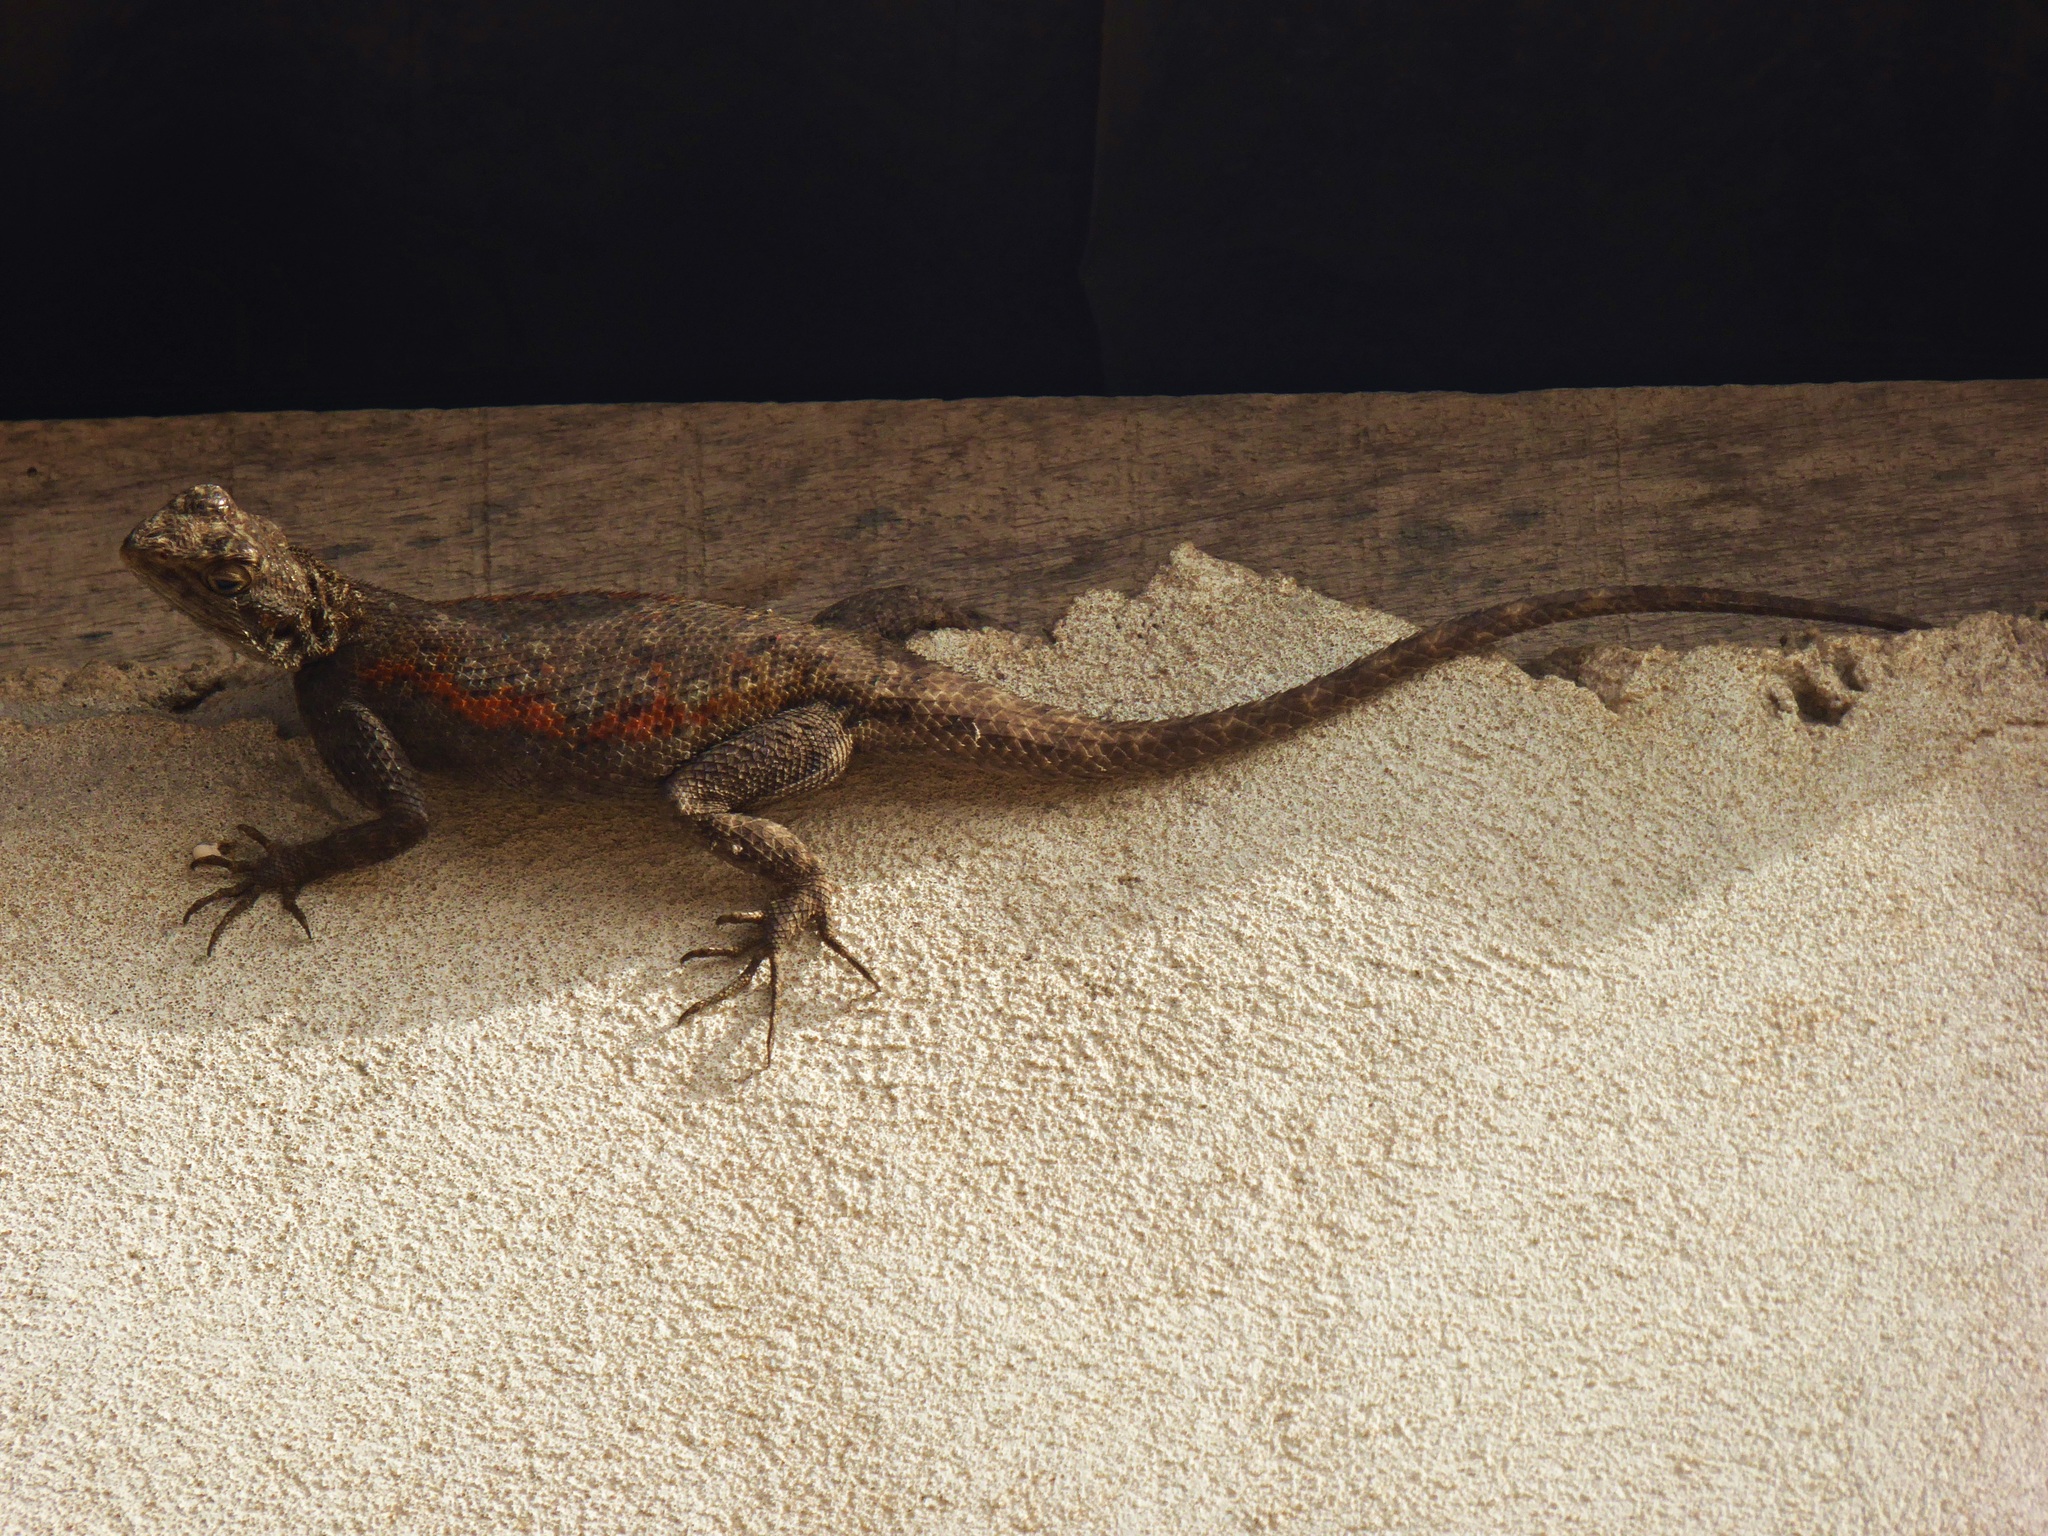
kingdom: Animalia
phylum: Chordata
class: Squamata
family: Agamidae
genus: Agama
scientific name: Agama agama
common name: Common agama
